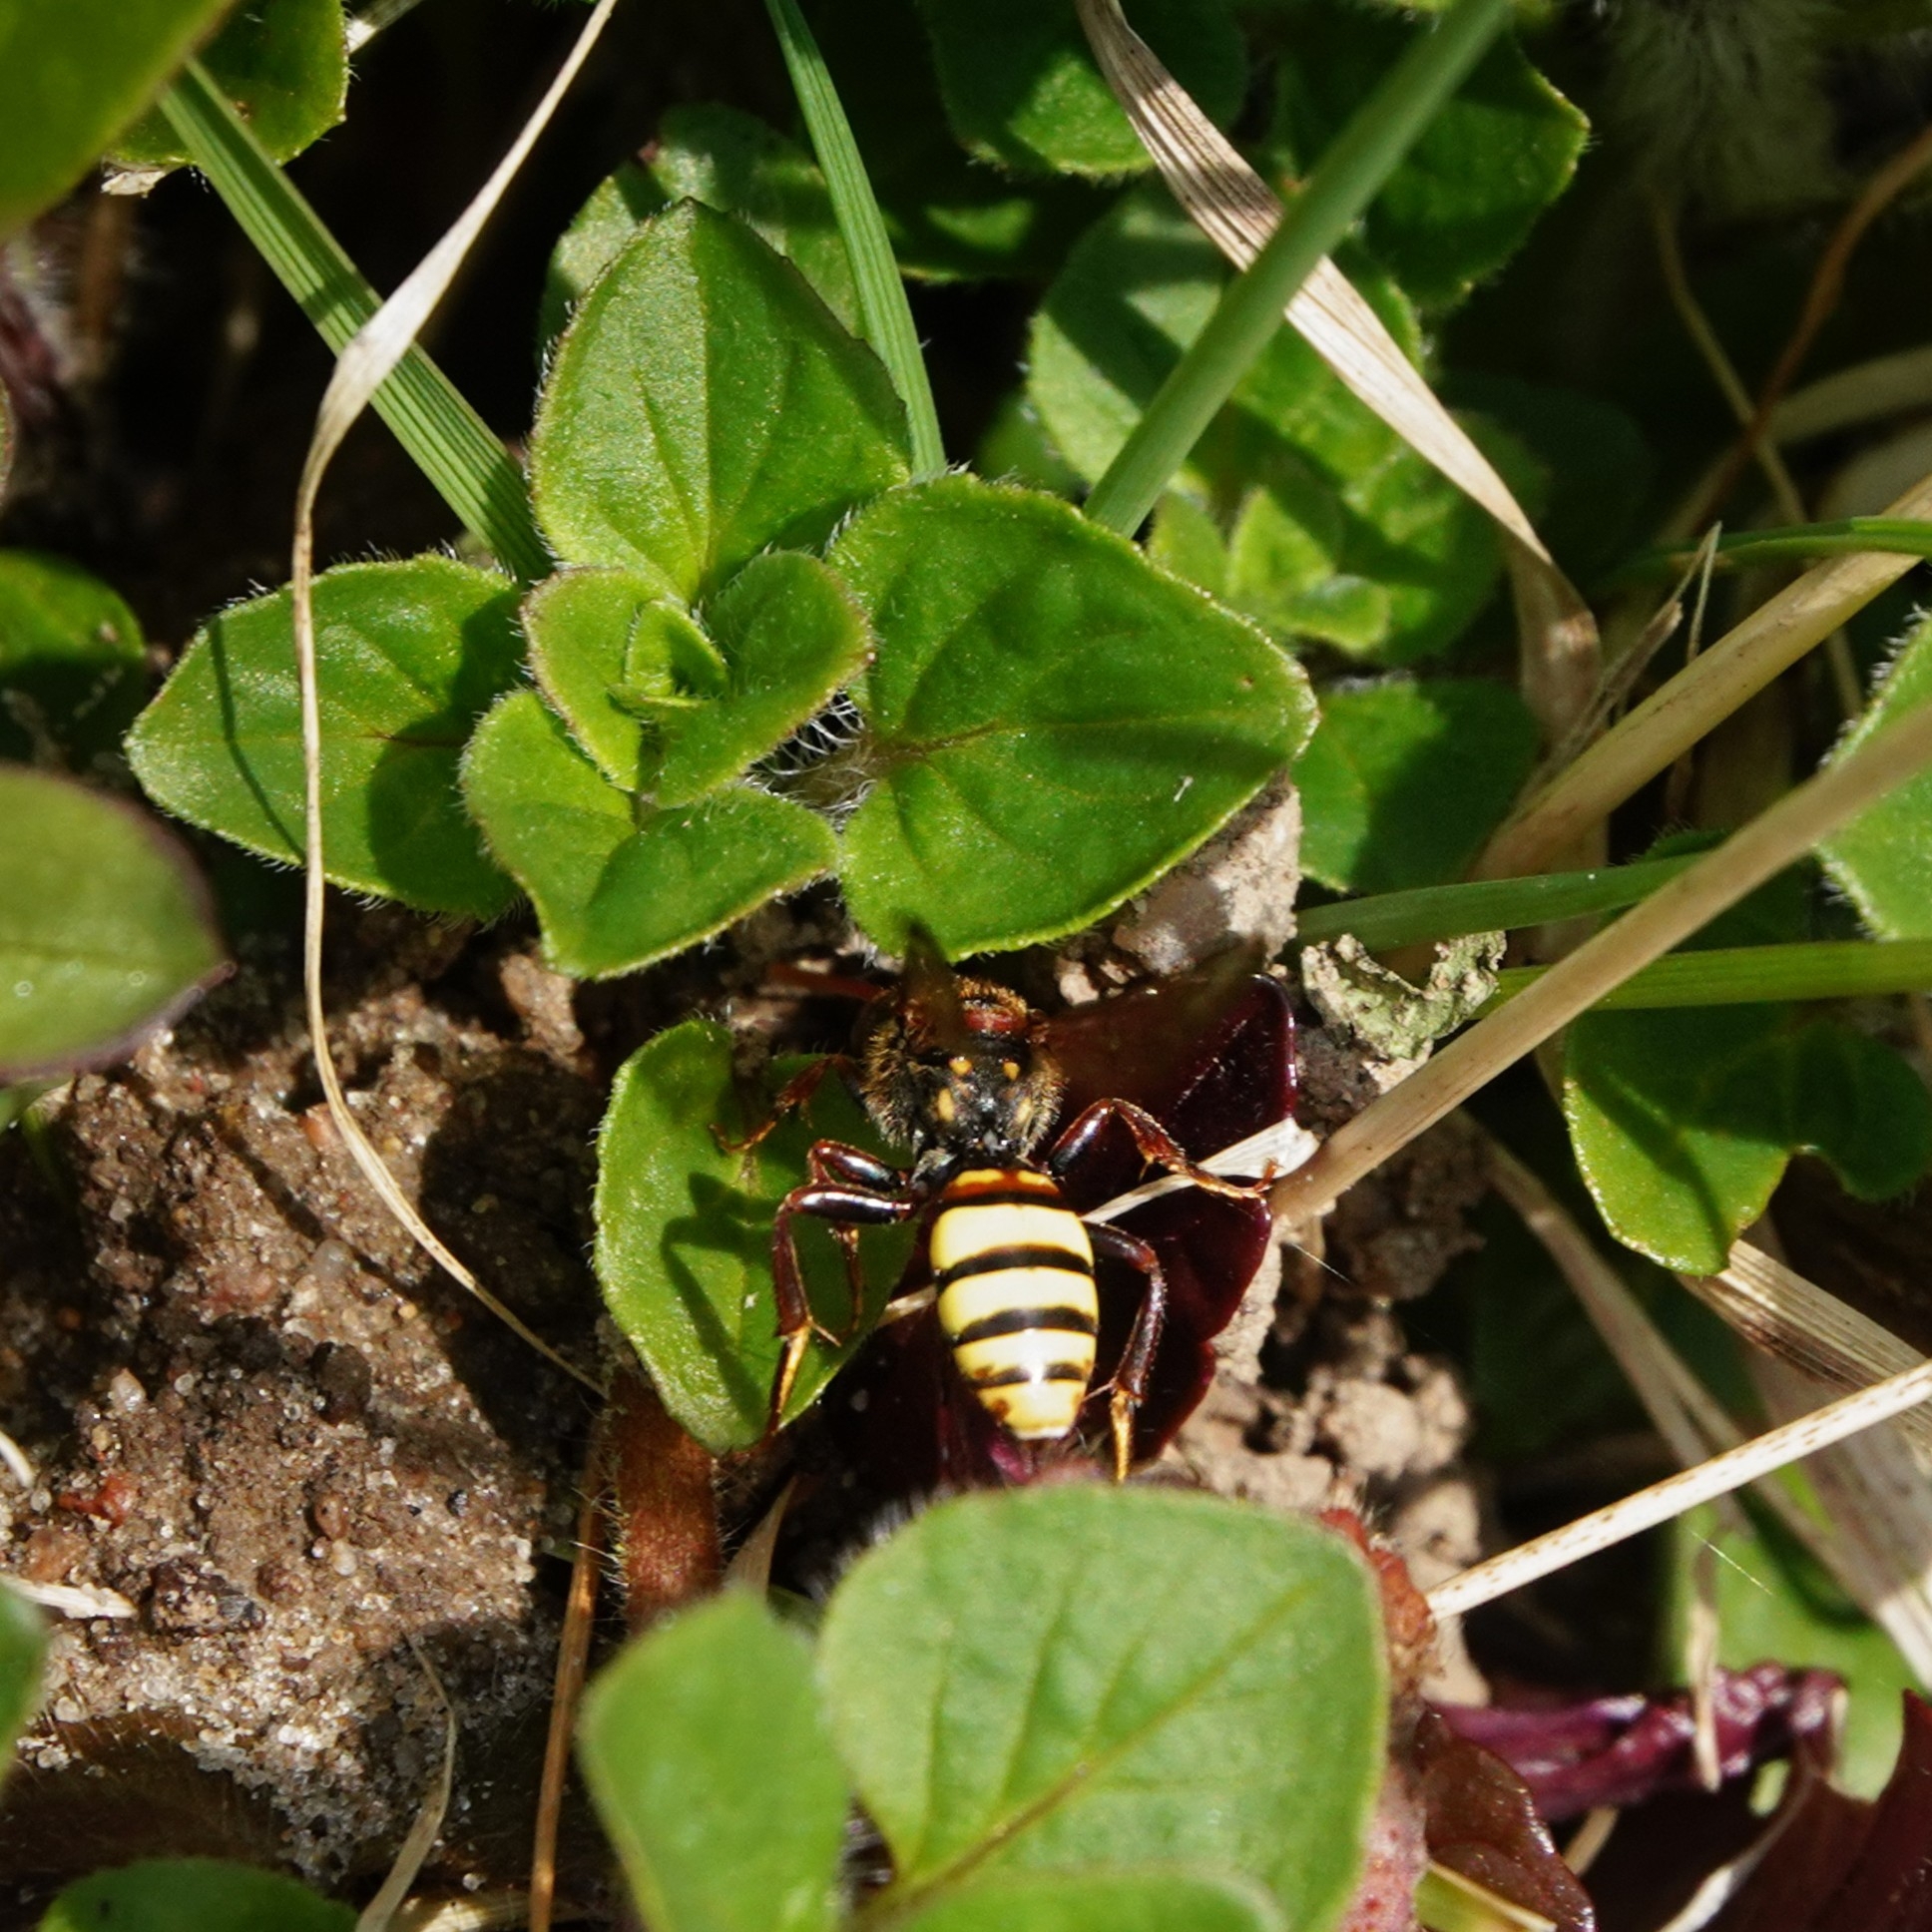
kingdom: Animalia
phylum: Arthropoda
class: Insecta
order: Hymenoptera
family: Apidae
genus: Nomada
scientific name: Nomada signata
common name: Broad-banded nomad bee
